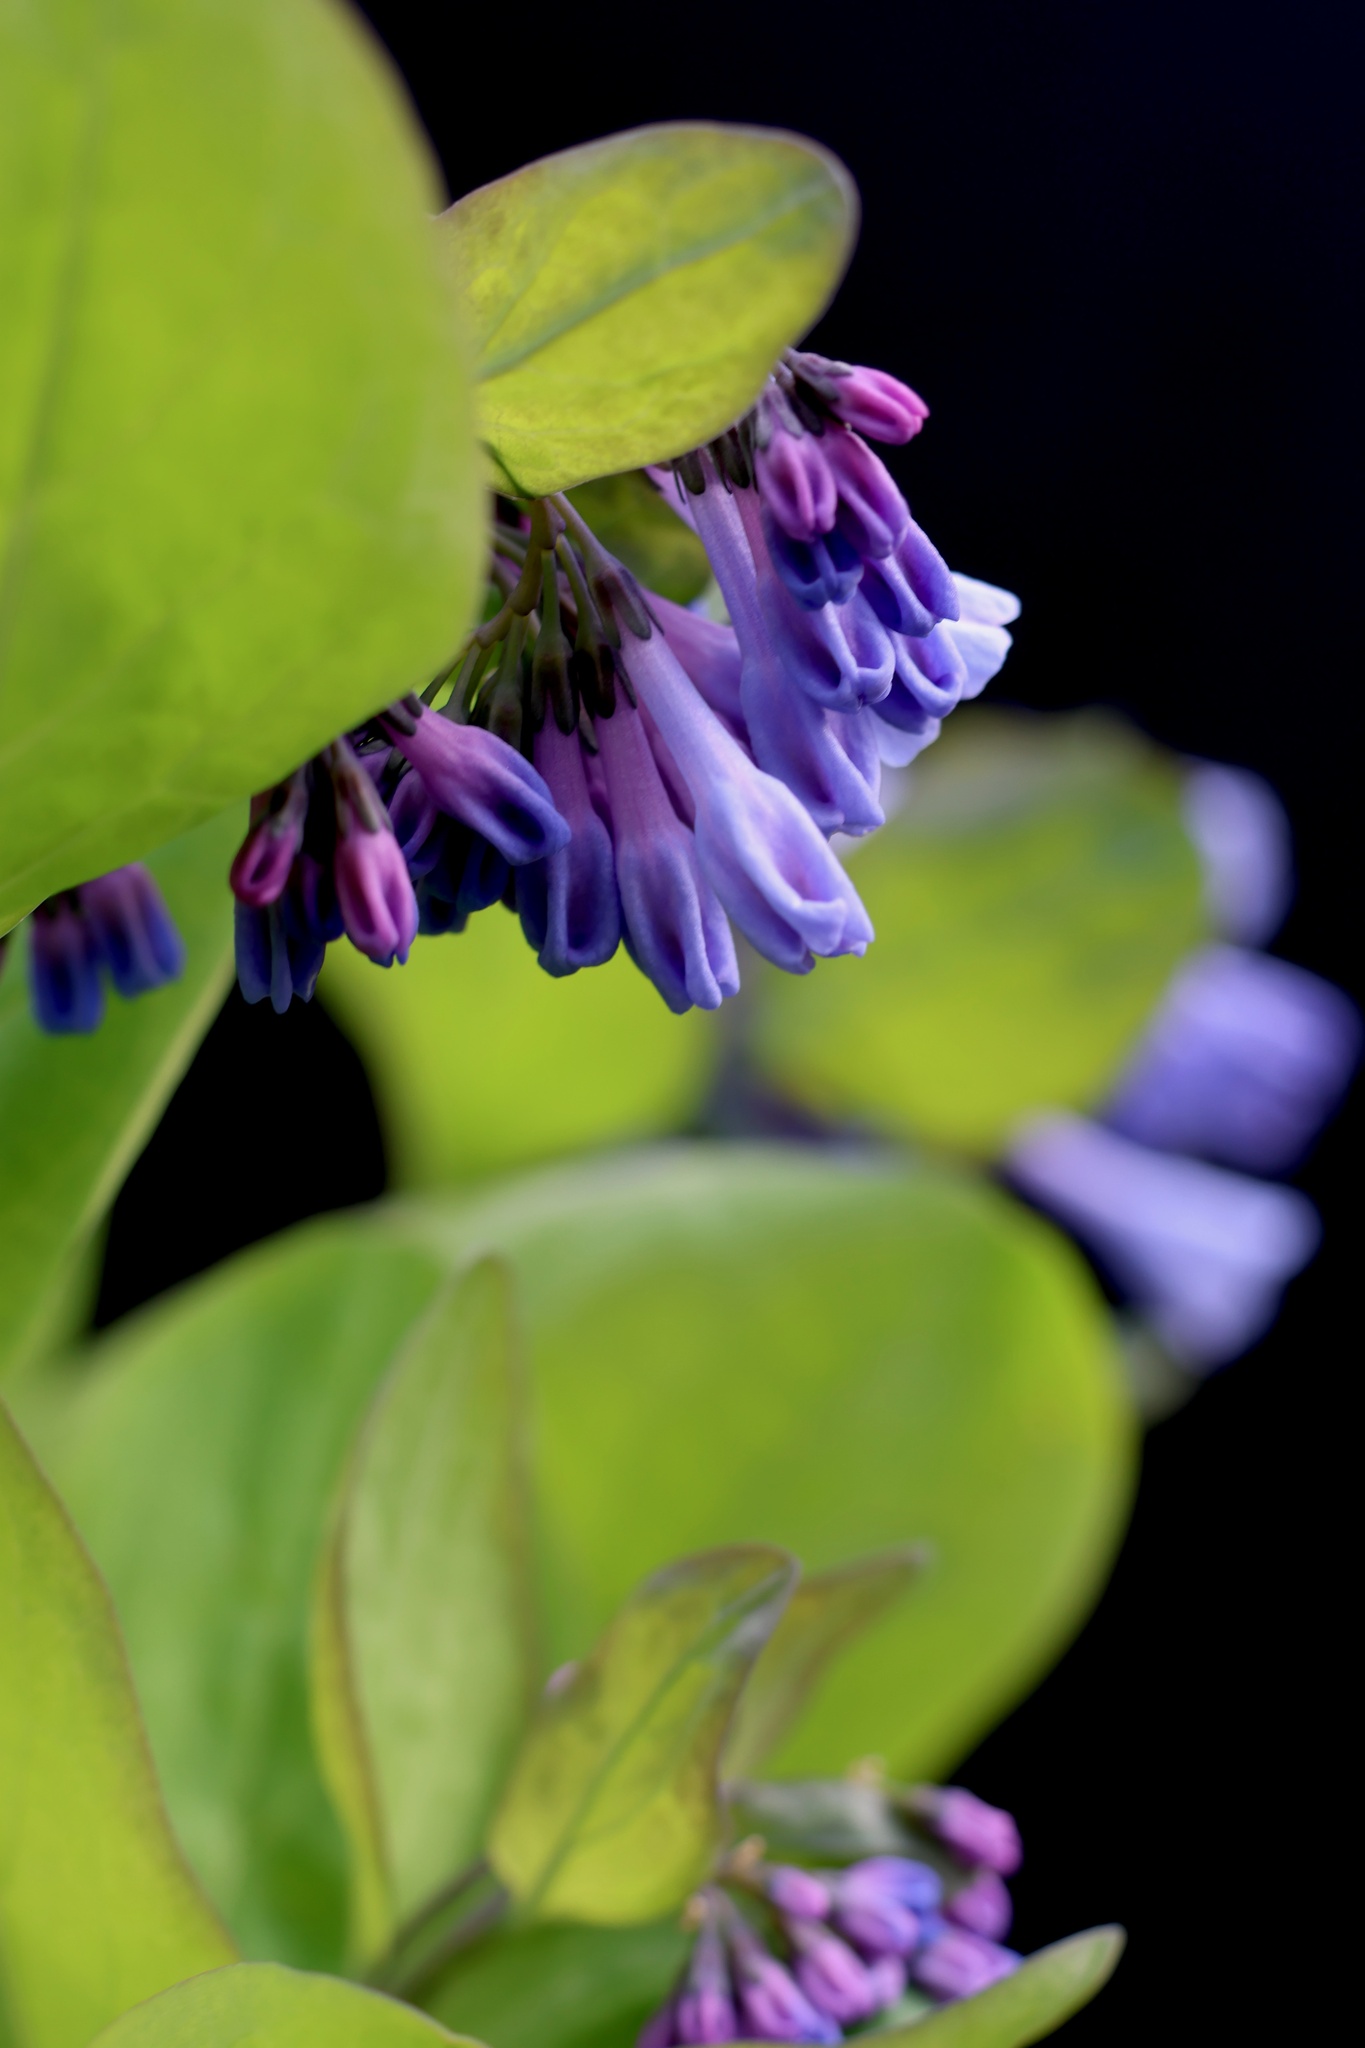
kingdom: Plantae
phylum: Tracheophyta
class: Magnoliopsida
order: Boraginales
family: Boraginaceae
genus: Mertensia
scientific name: Mertensia virginica
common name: Virginia bluebells
